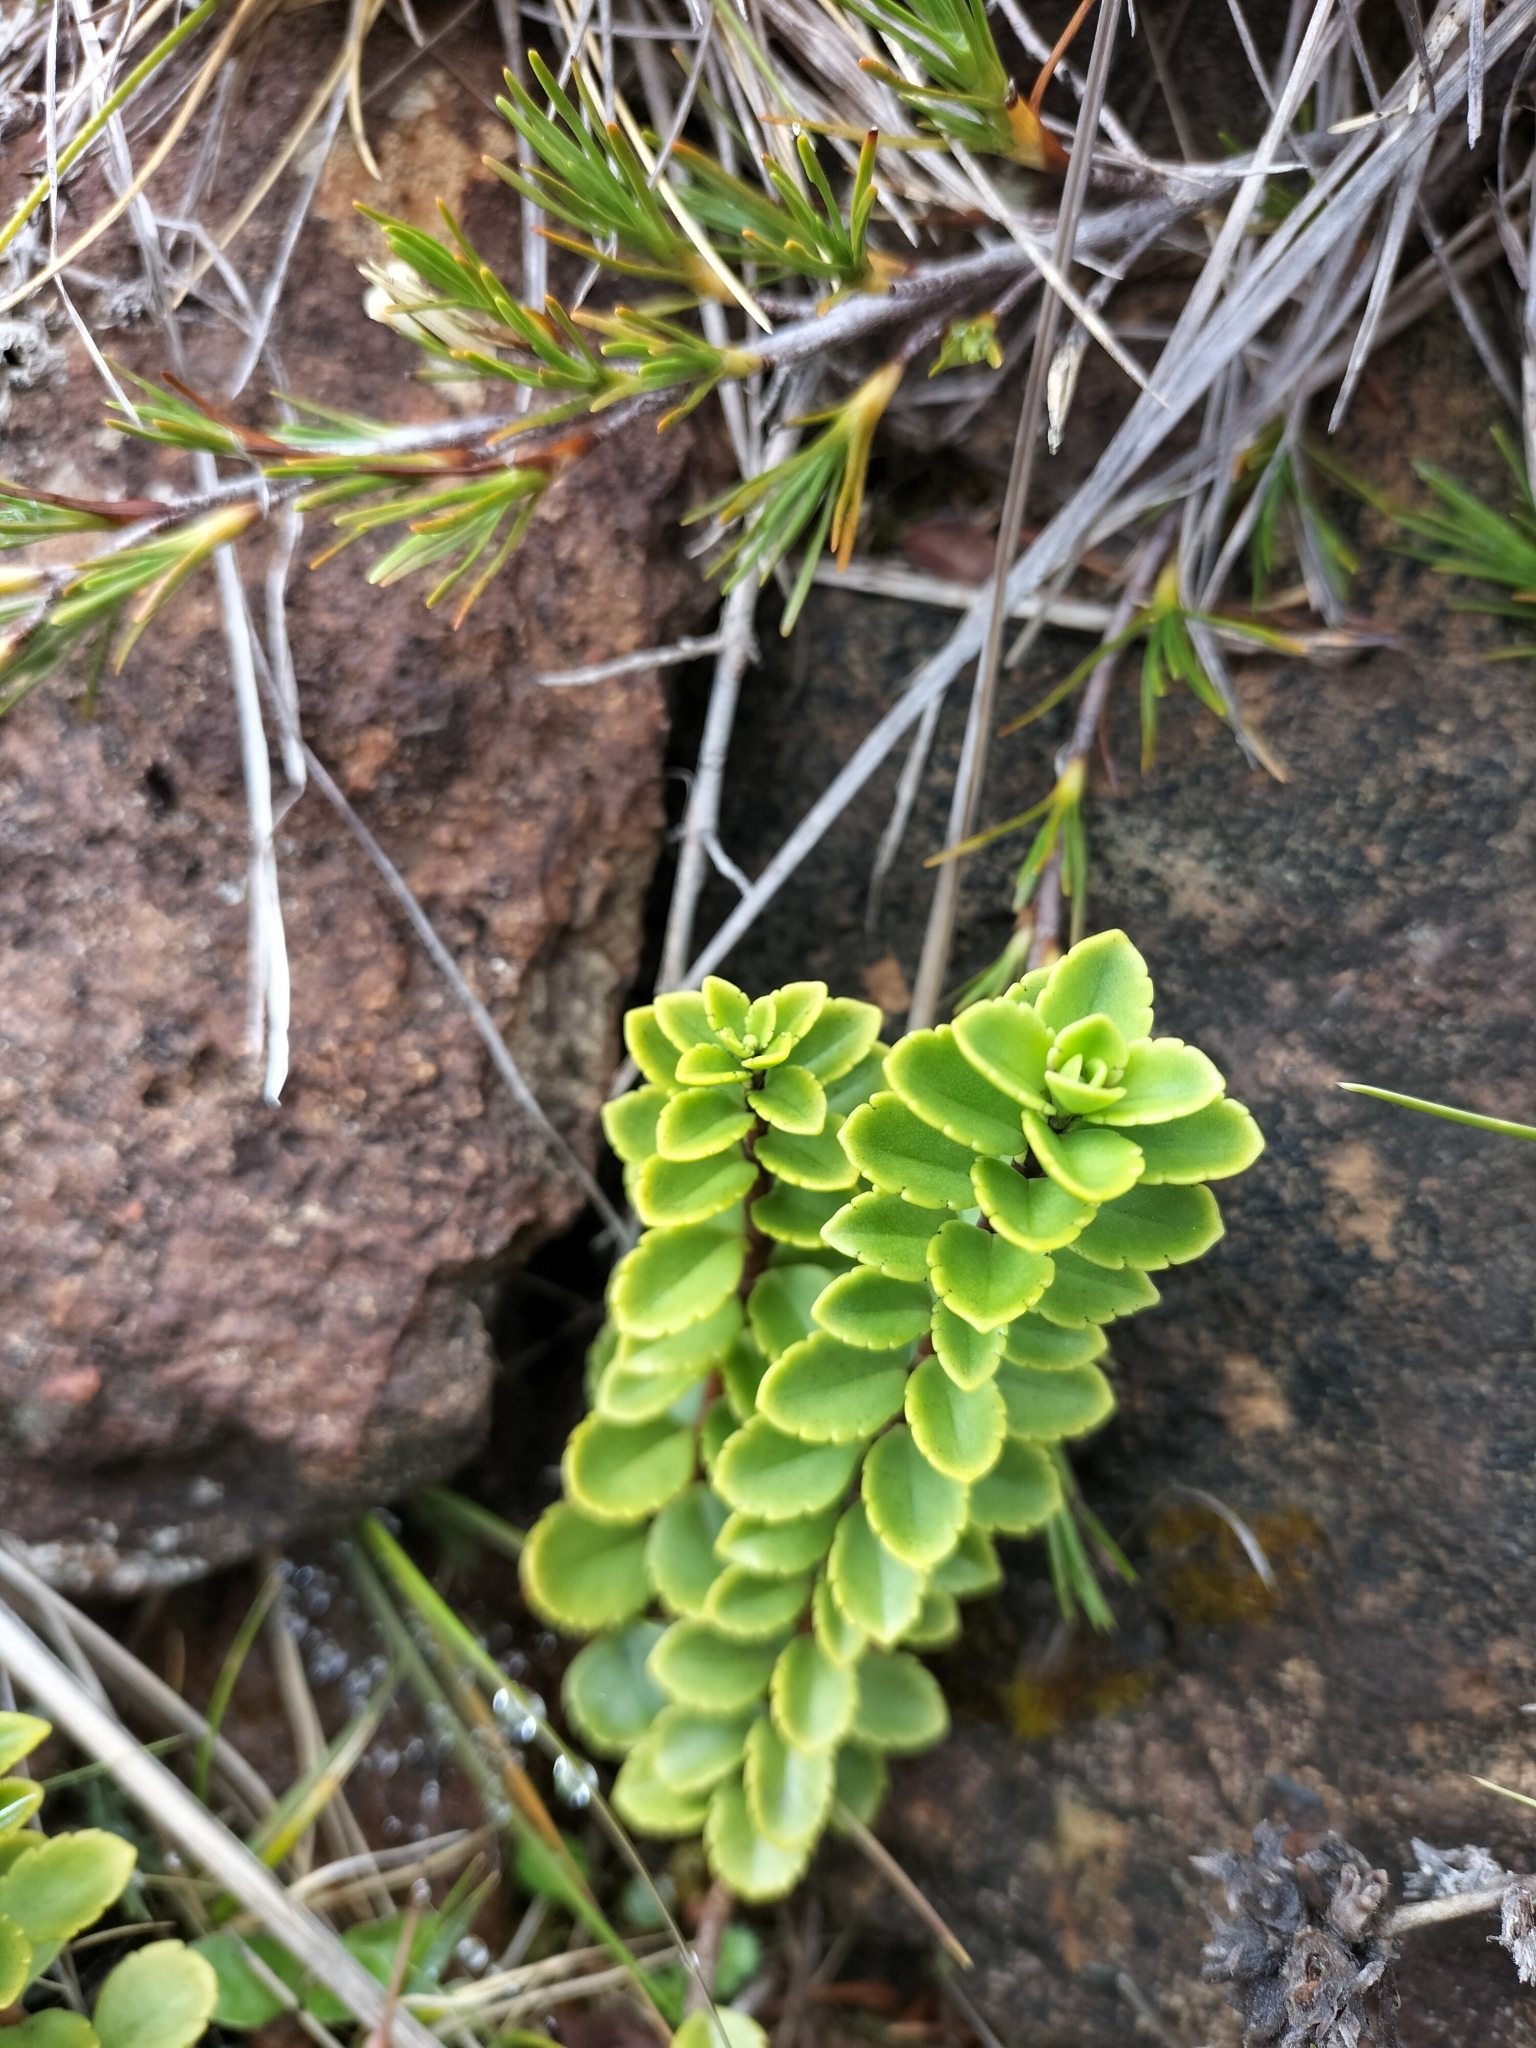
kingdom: Plantae
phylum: Tracheophyta
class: Magnoliopsida
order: Lamiales
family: Plantaginaceae
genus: Veronica
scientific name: Veronica macrantha
